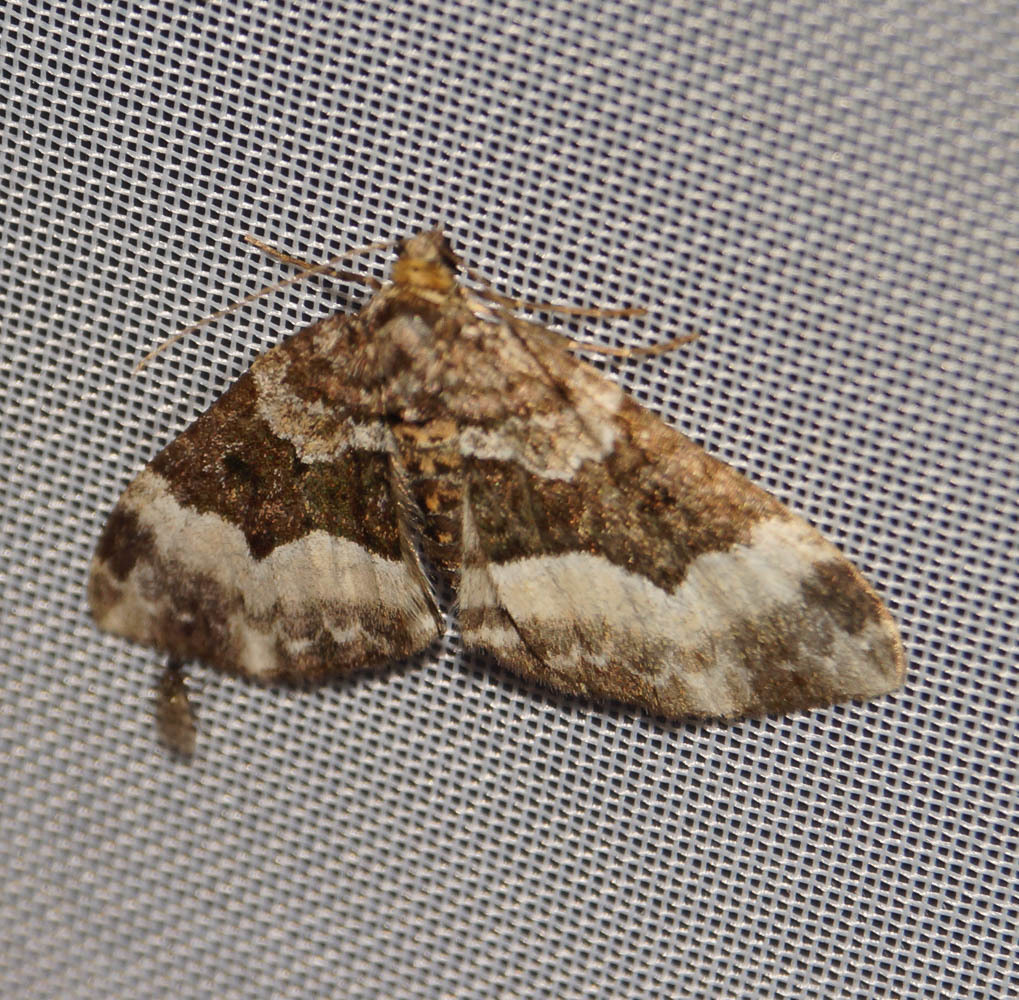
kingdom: Animalia
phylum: Arthropoda
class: Insecta
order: Lepidoptera
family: Geometridae
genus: Euphyia
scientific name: Euphyia unangulata
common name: Sharp-angled carpet
